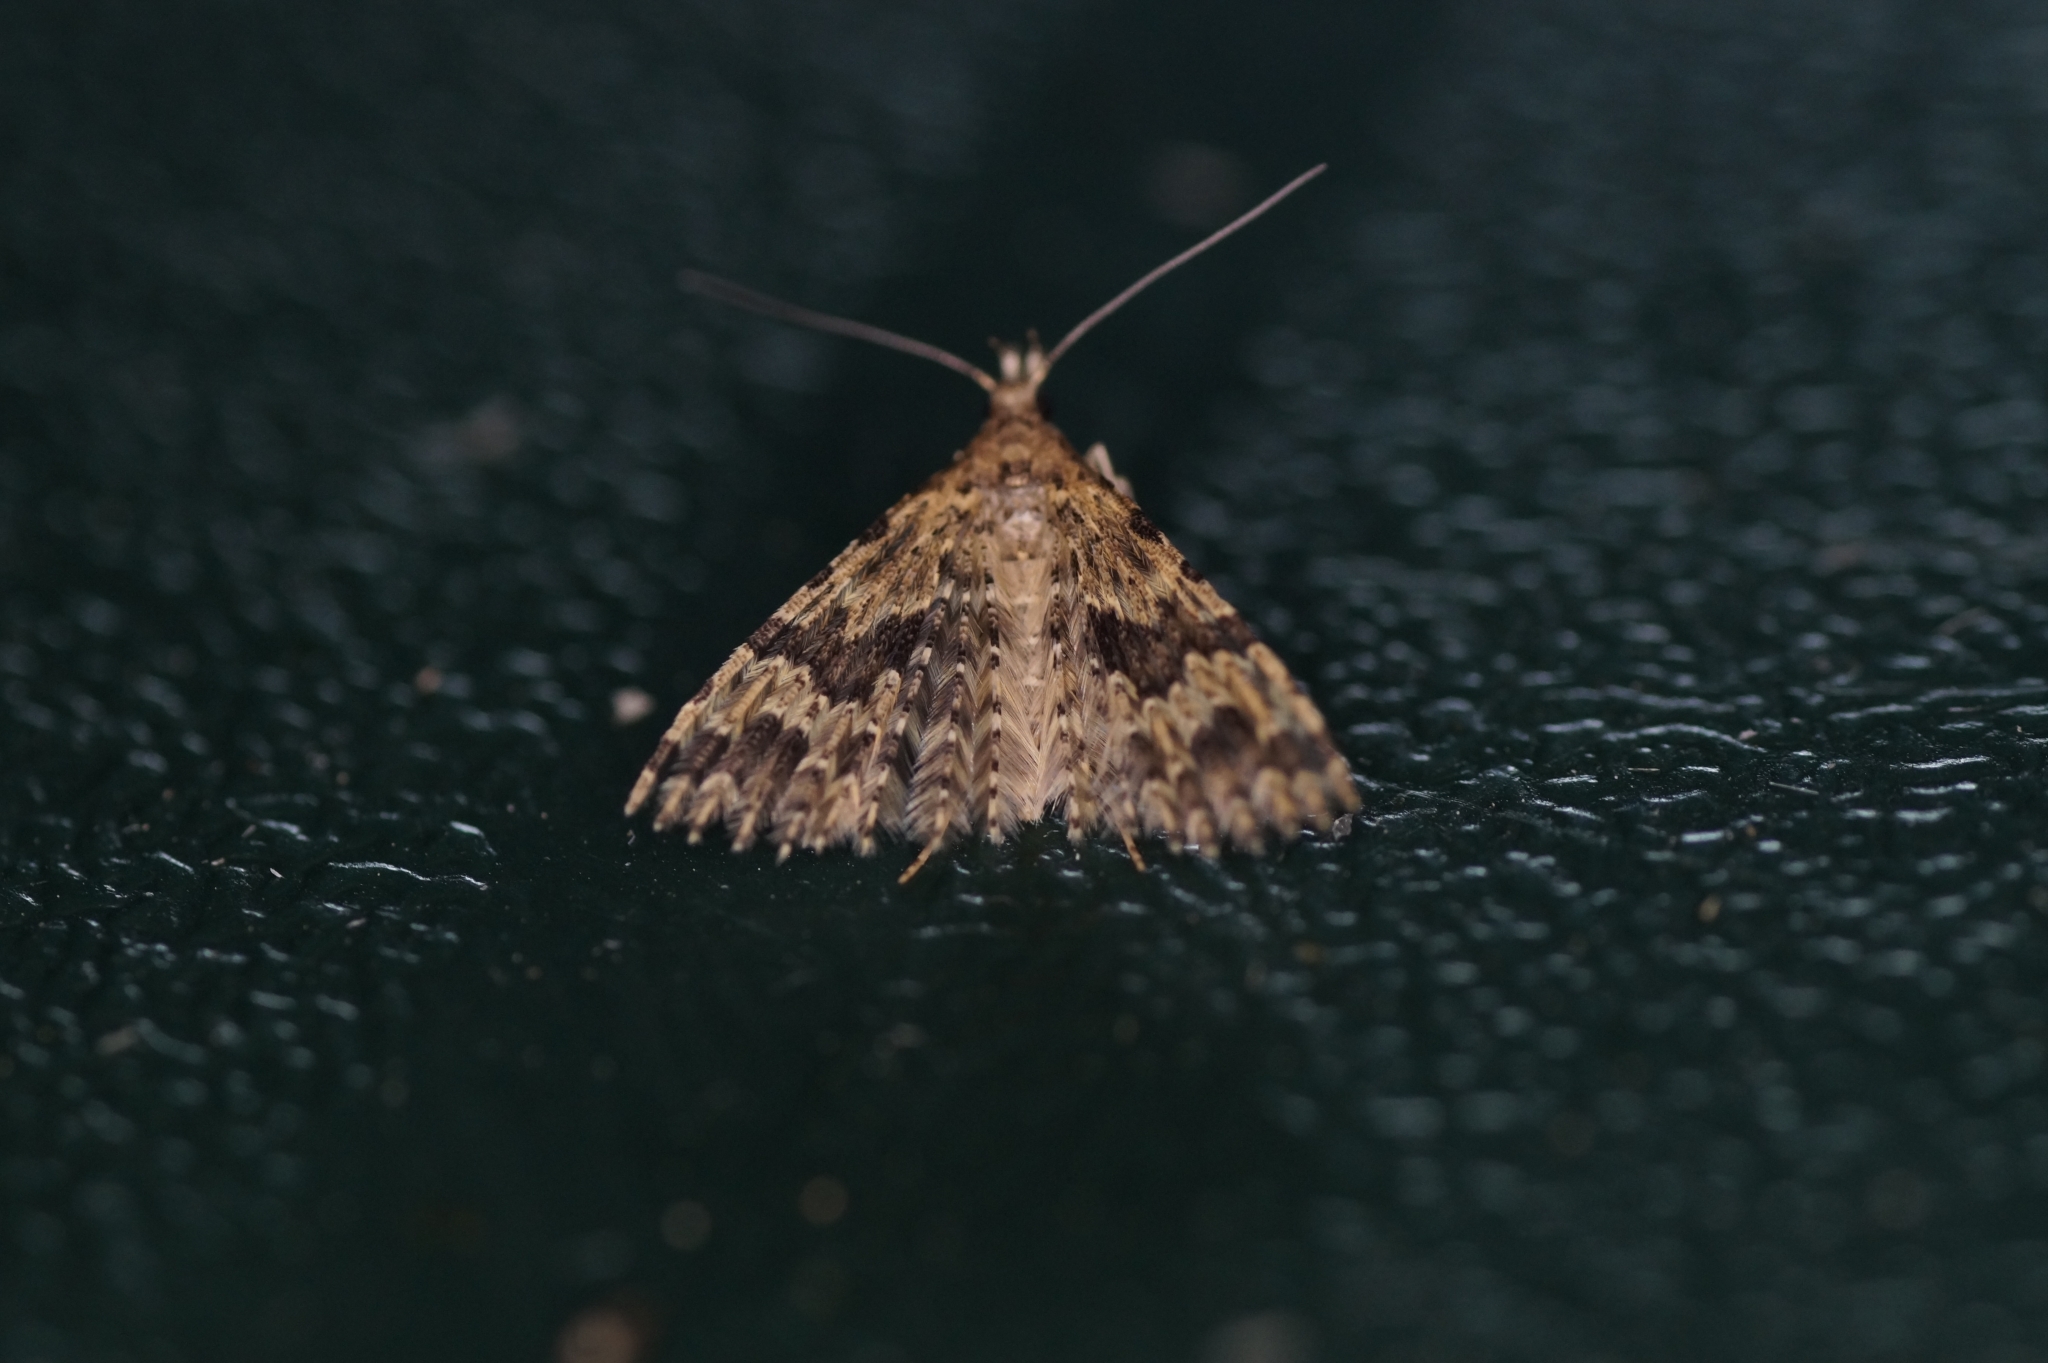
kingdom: Animalia
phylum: Arthropoda
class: Insecta
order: Lepidoptera
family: Alucitidae
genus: Alucita
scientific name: Alucita hexadactyla
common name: Twenty-plume moth
